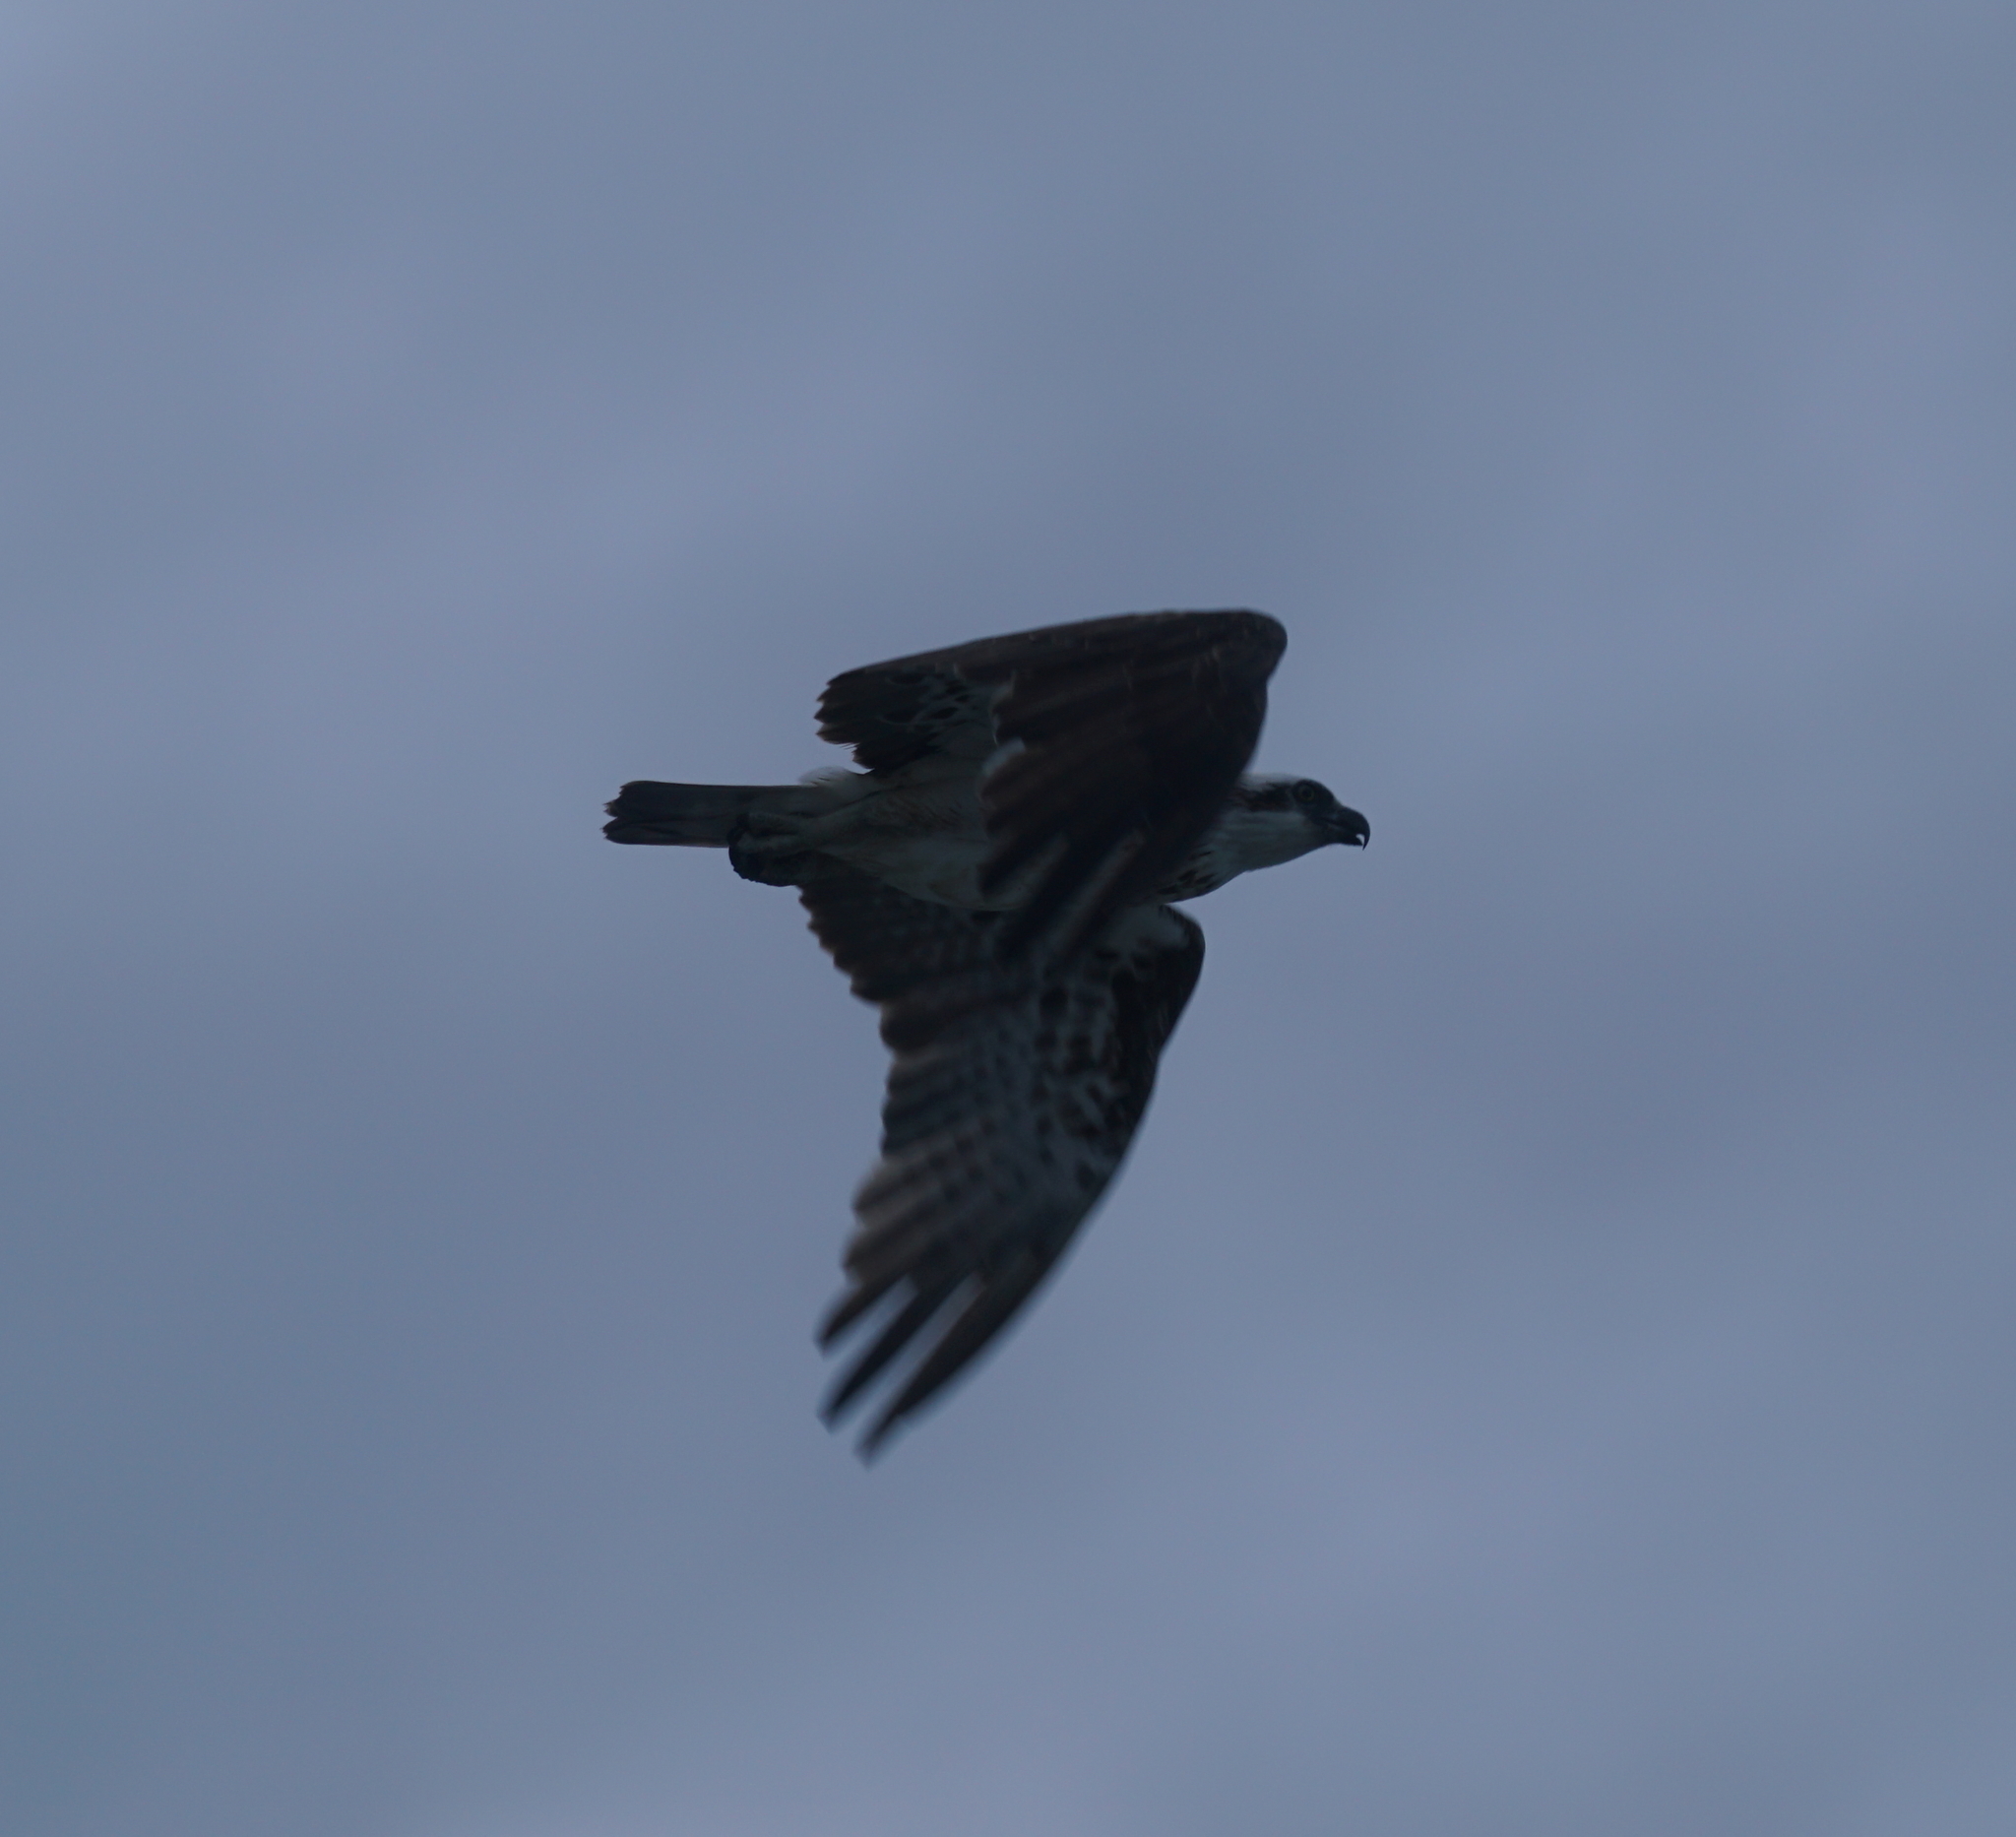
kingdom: Animalia
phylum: Chordata
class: Aves
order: Accipitriformes
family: Pandionidae
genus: Pandion
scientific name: Pandion cristatus
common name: Eastern osprey
